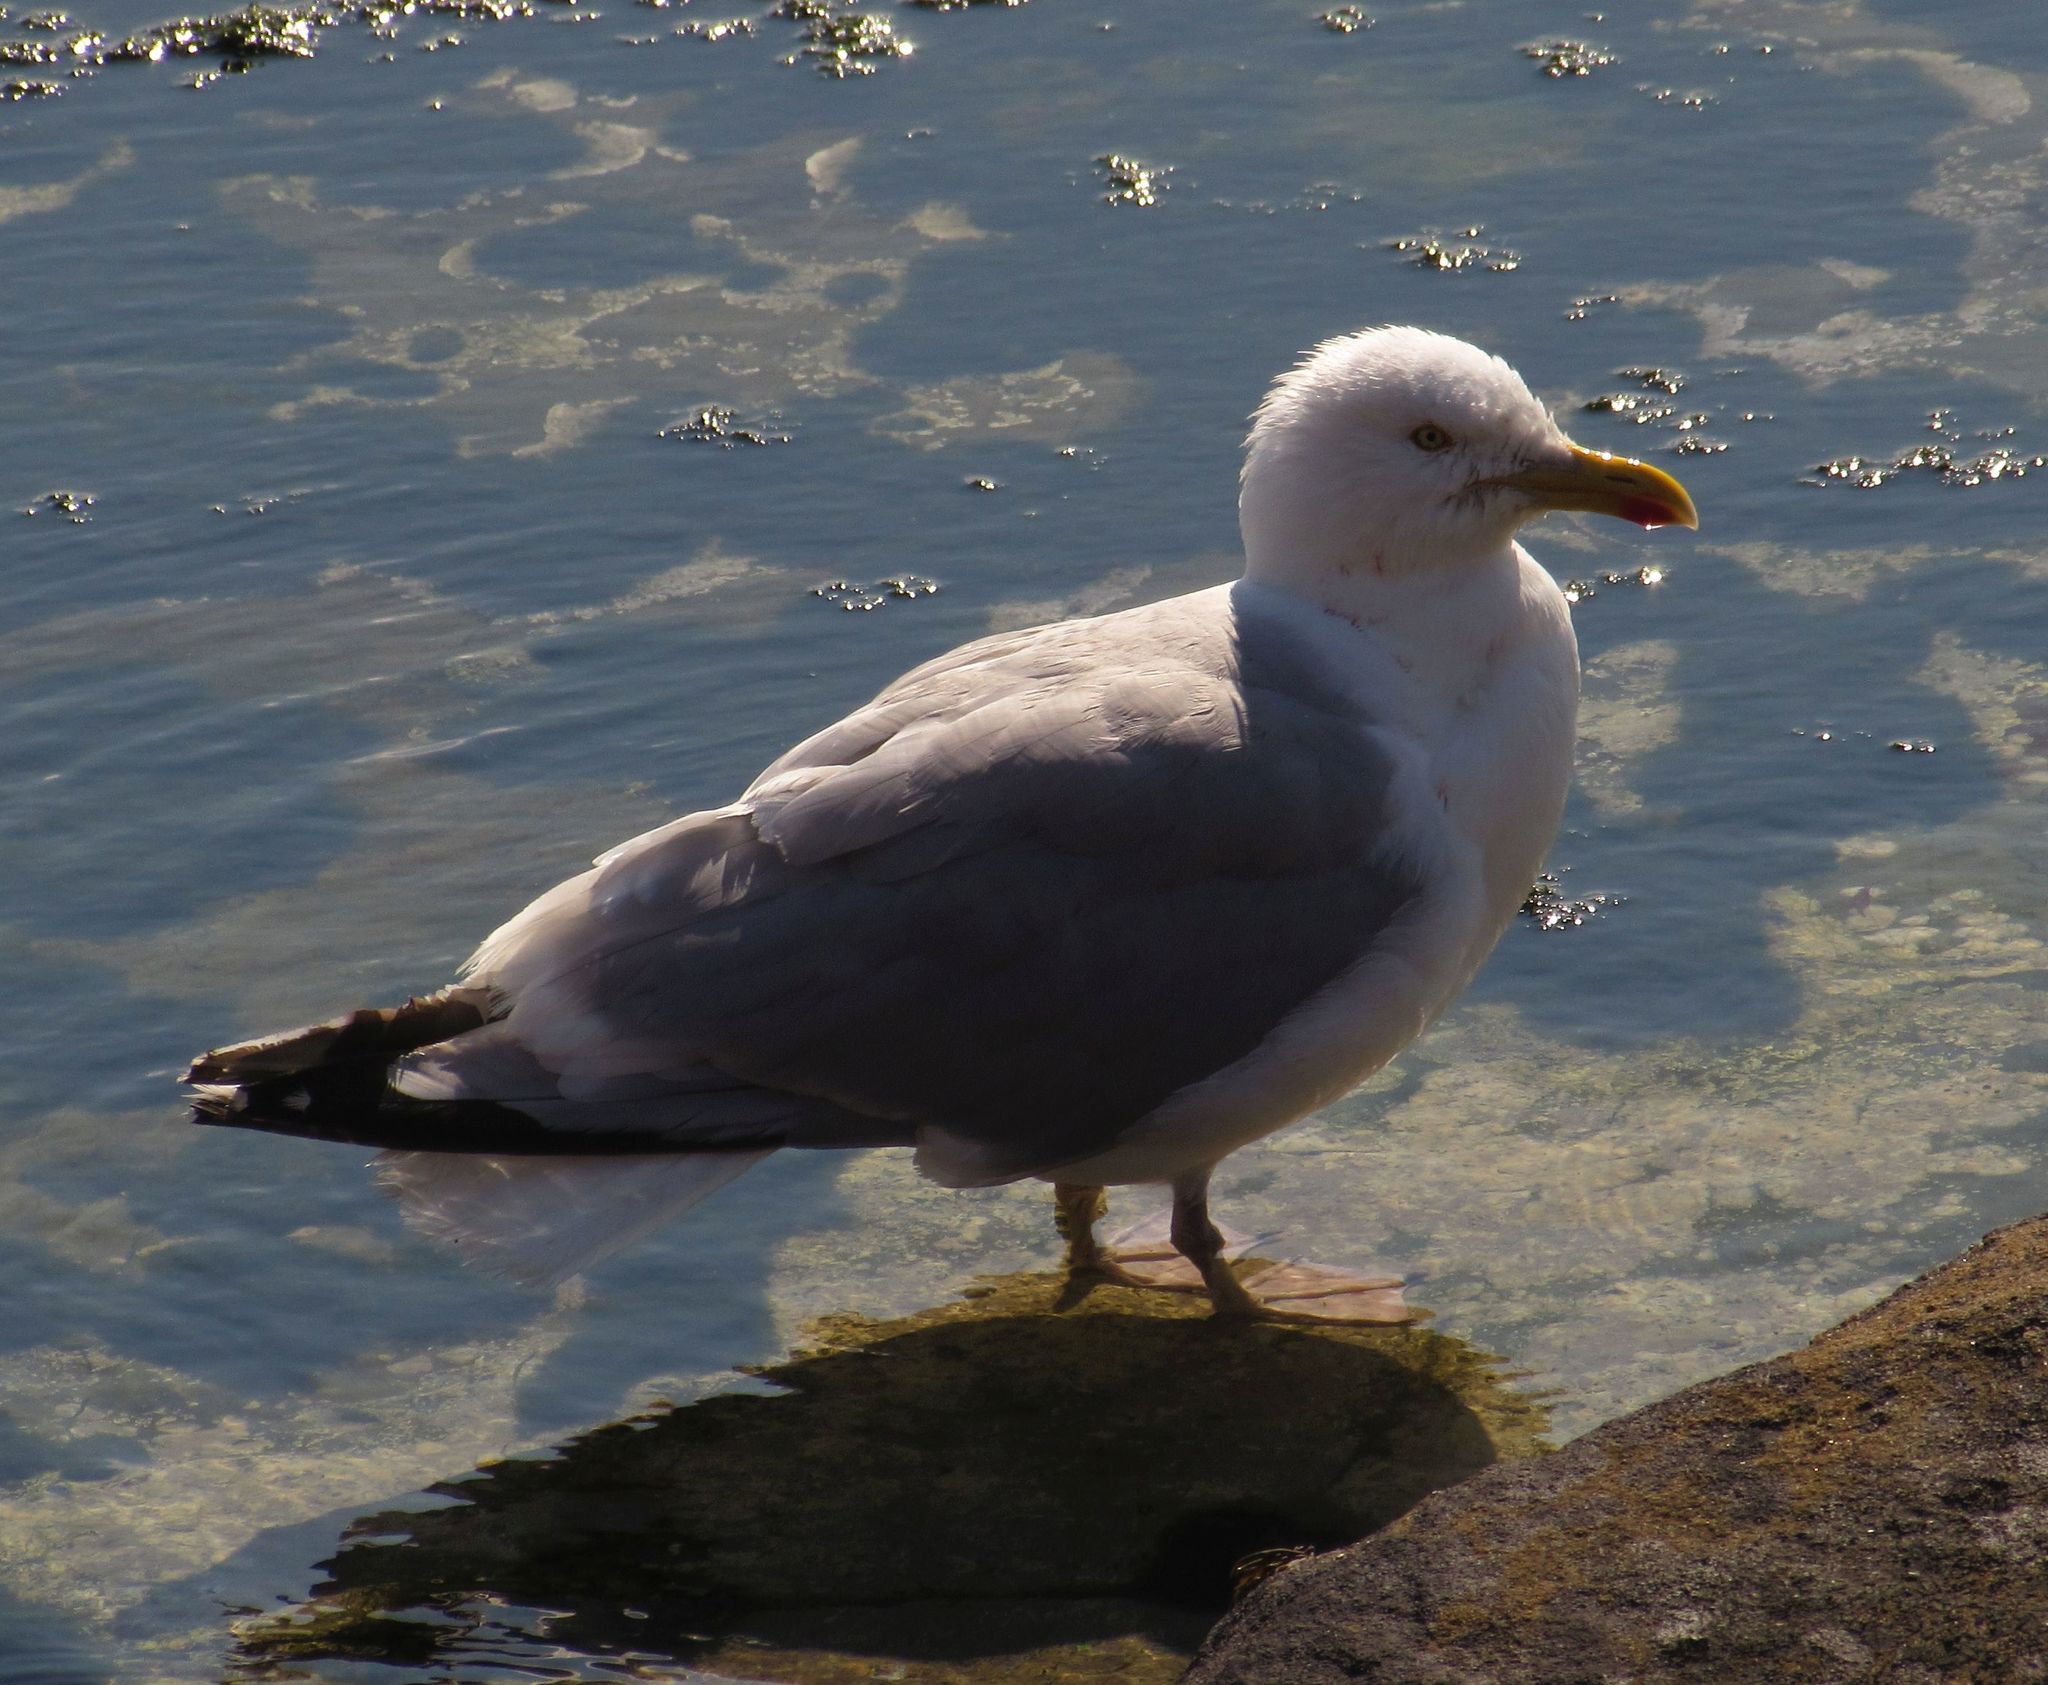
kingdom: Animalia
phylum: Chordata
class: Aves
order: Charadriiformes
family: Laridae
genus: Larus
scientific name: Larus argentatus
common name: Herring gull
